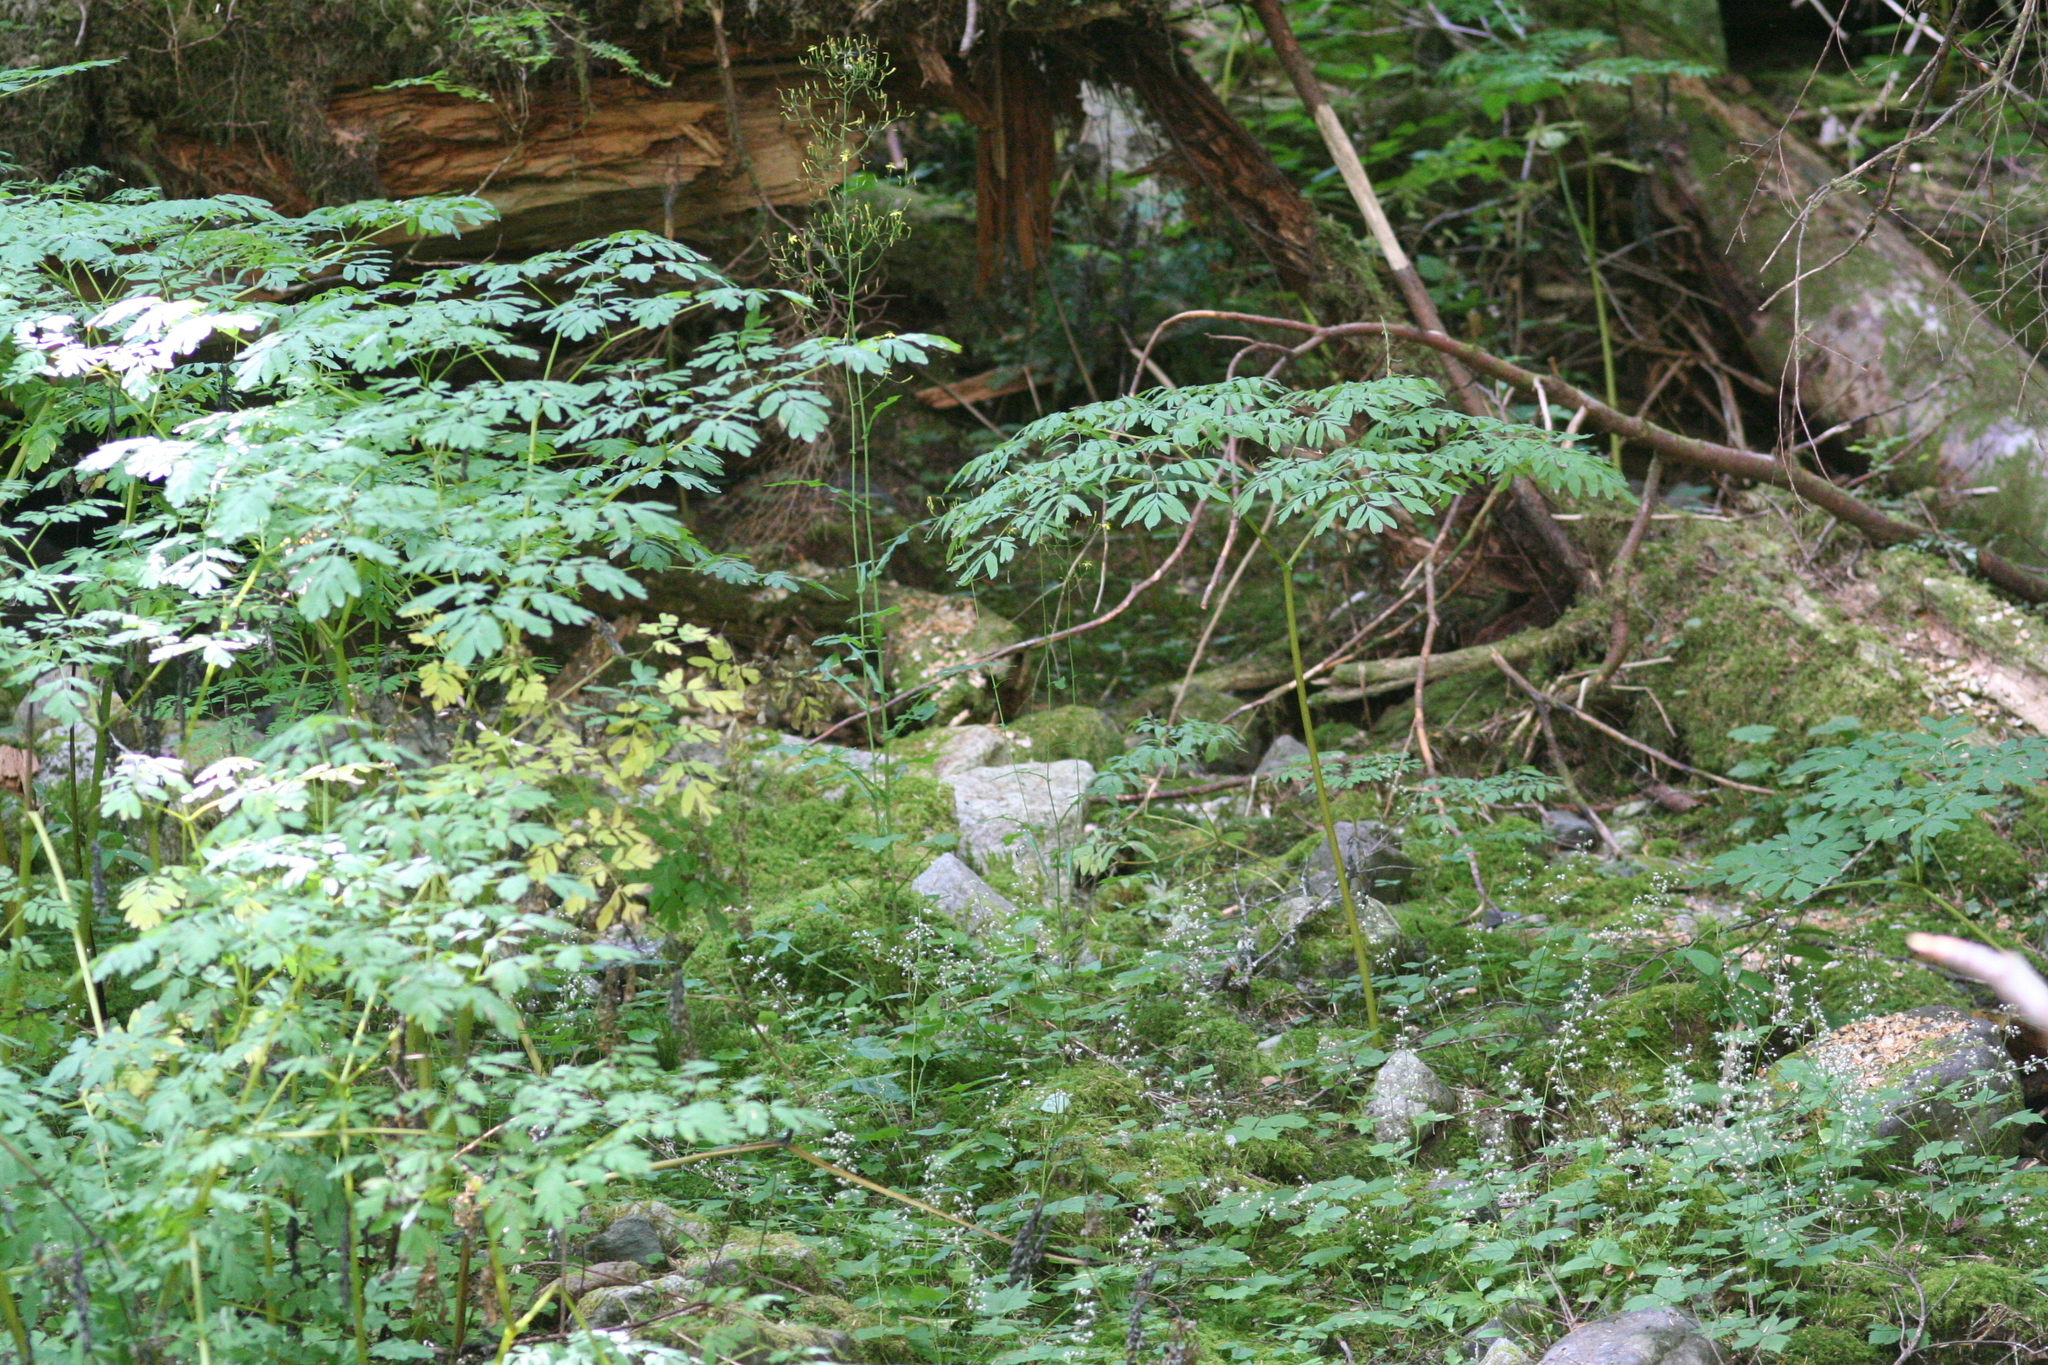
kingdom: Plantae
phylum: Tracheophyta
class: Magnoliopsida
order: Ranunculales
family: Papaveraceae
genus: Corydalis
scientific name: Corydalis scouleri
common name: Scouler's corydalis
